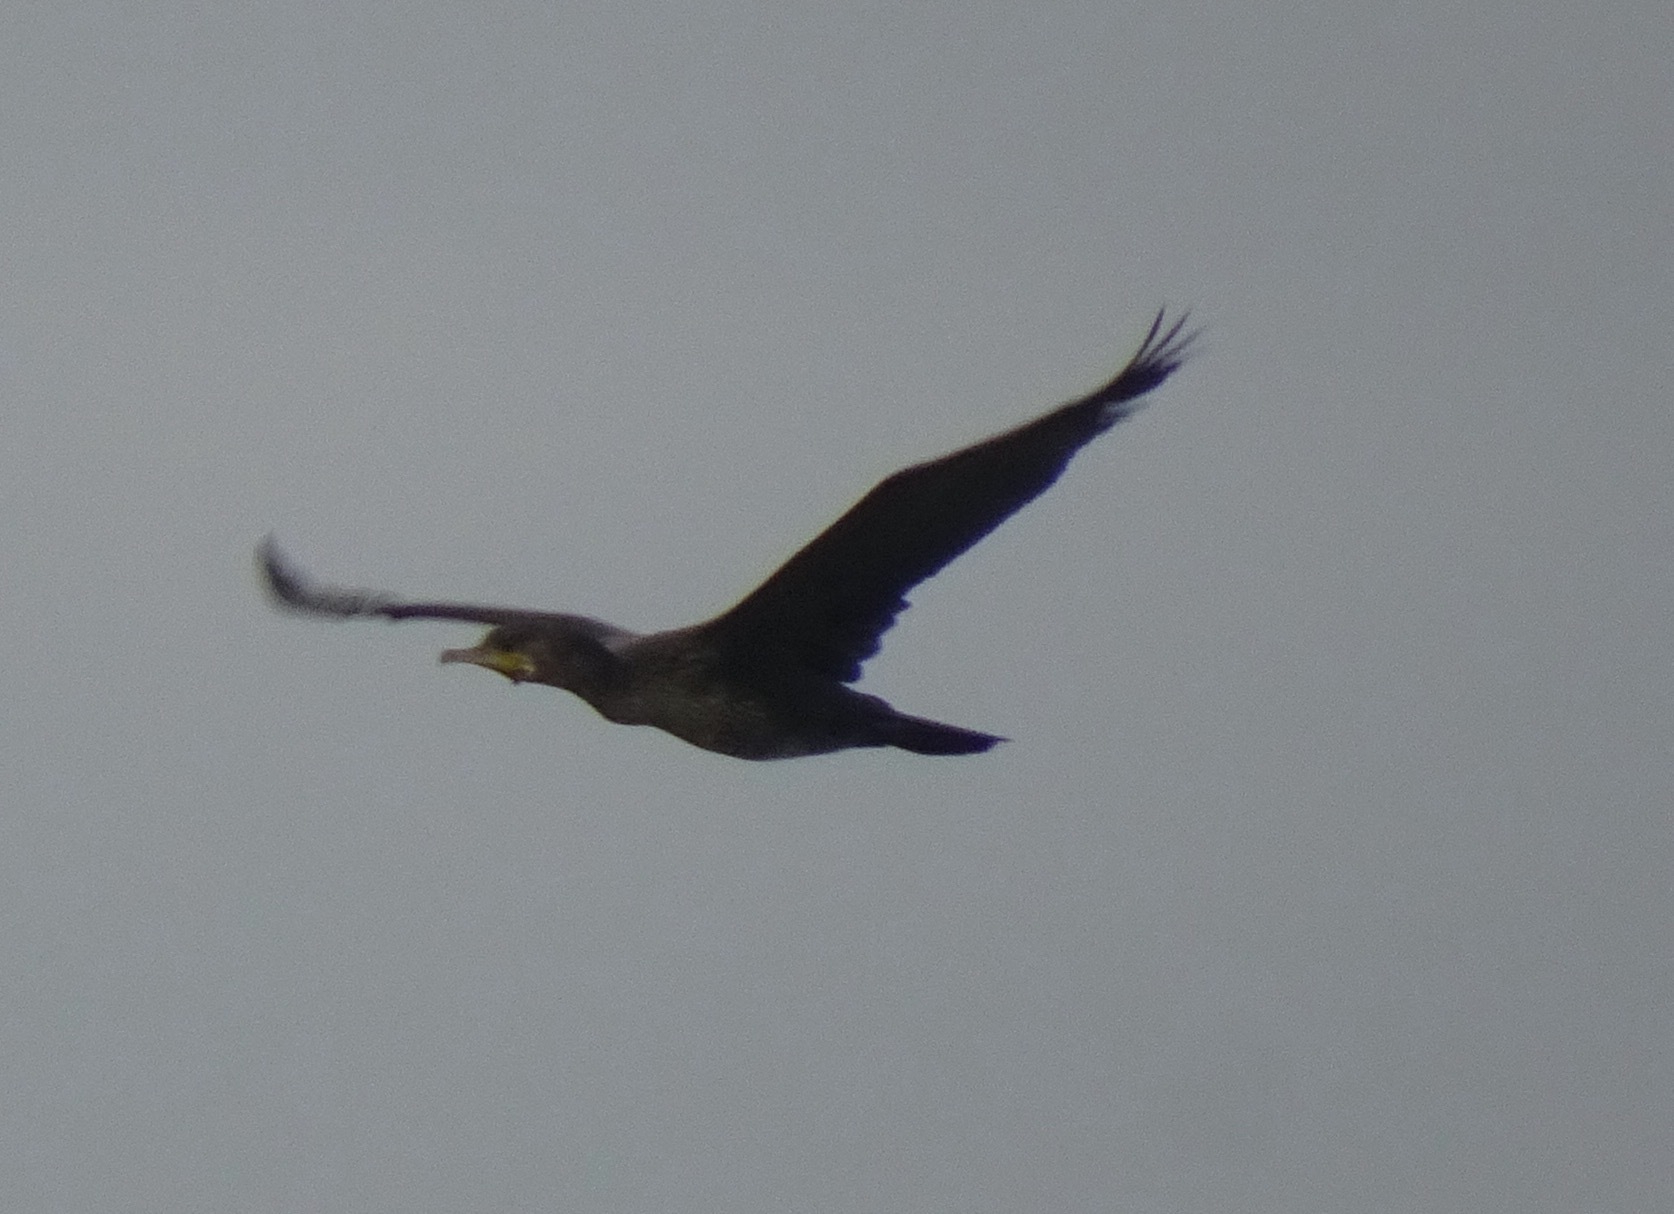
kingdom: Animalia
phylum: Chordata
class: Aves
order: Suliformes
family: Phalacrocoracidae
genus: Phalacrocorax
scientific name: Phalacrocorax carbo
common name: Great cormorant
